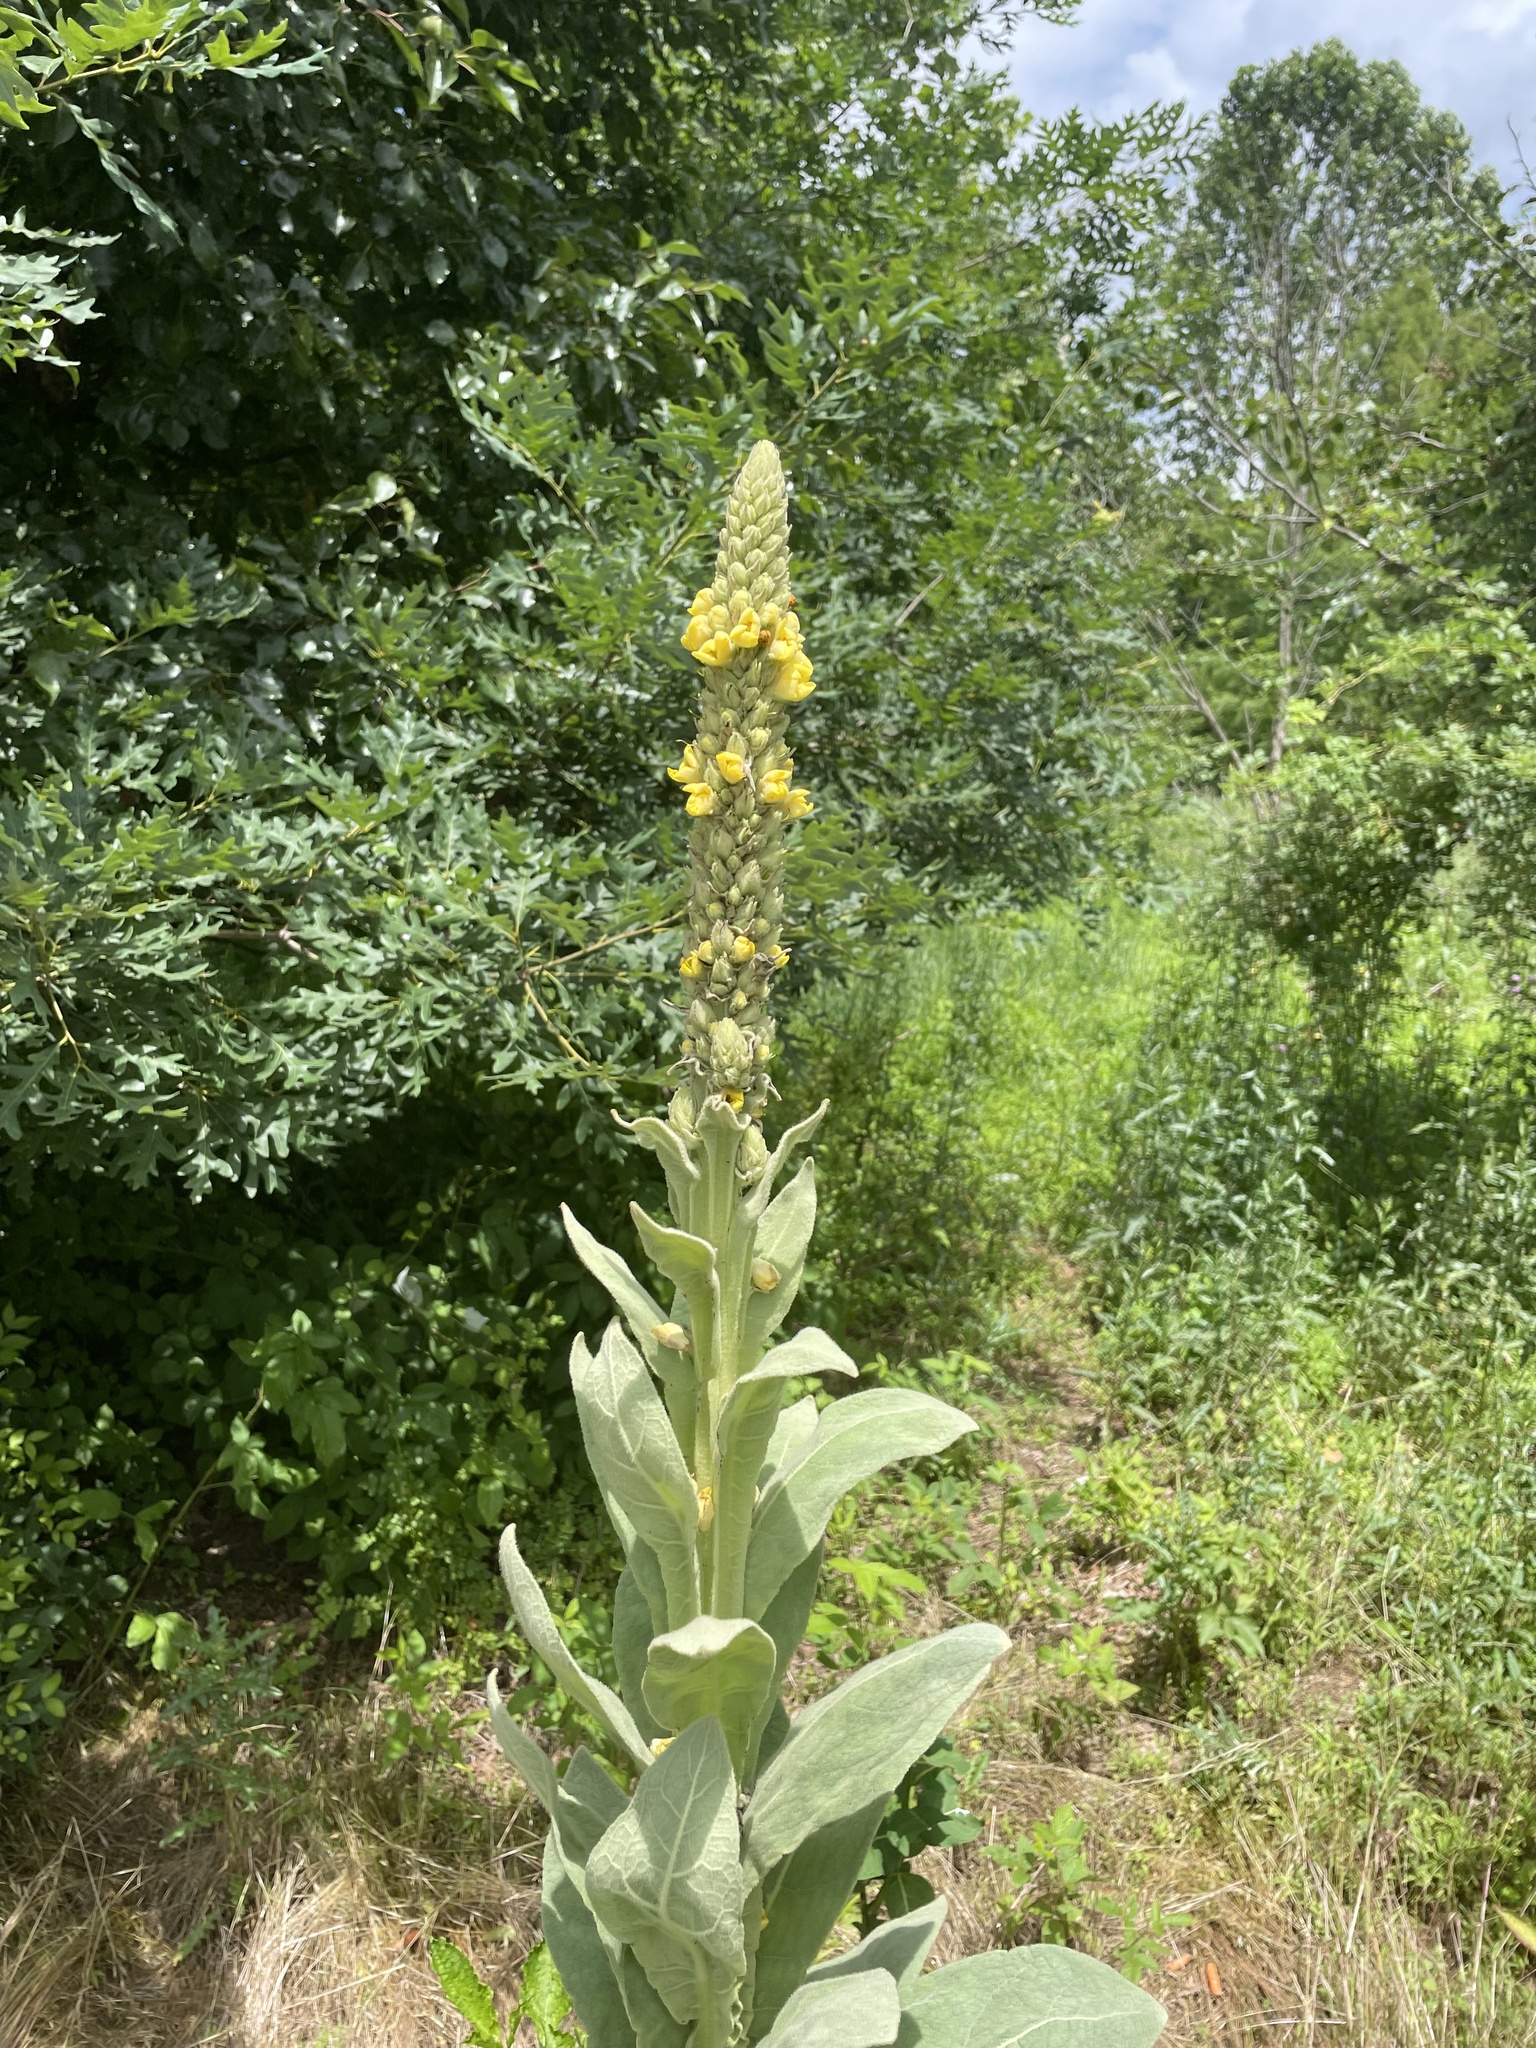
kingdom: Plantae
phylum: Tracheophyta
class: Magnoliopsida
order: Lamiales
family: Scrophulariaceae
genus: Verbascum
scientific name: Verbascum thapsus
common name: Common mullein
